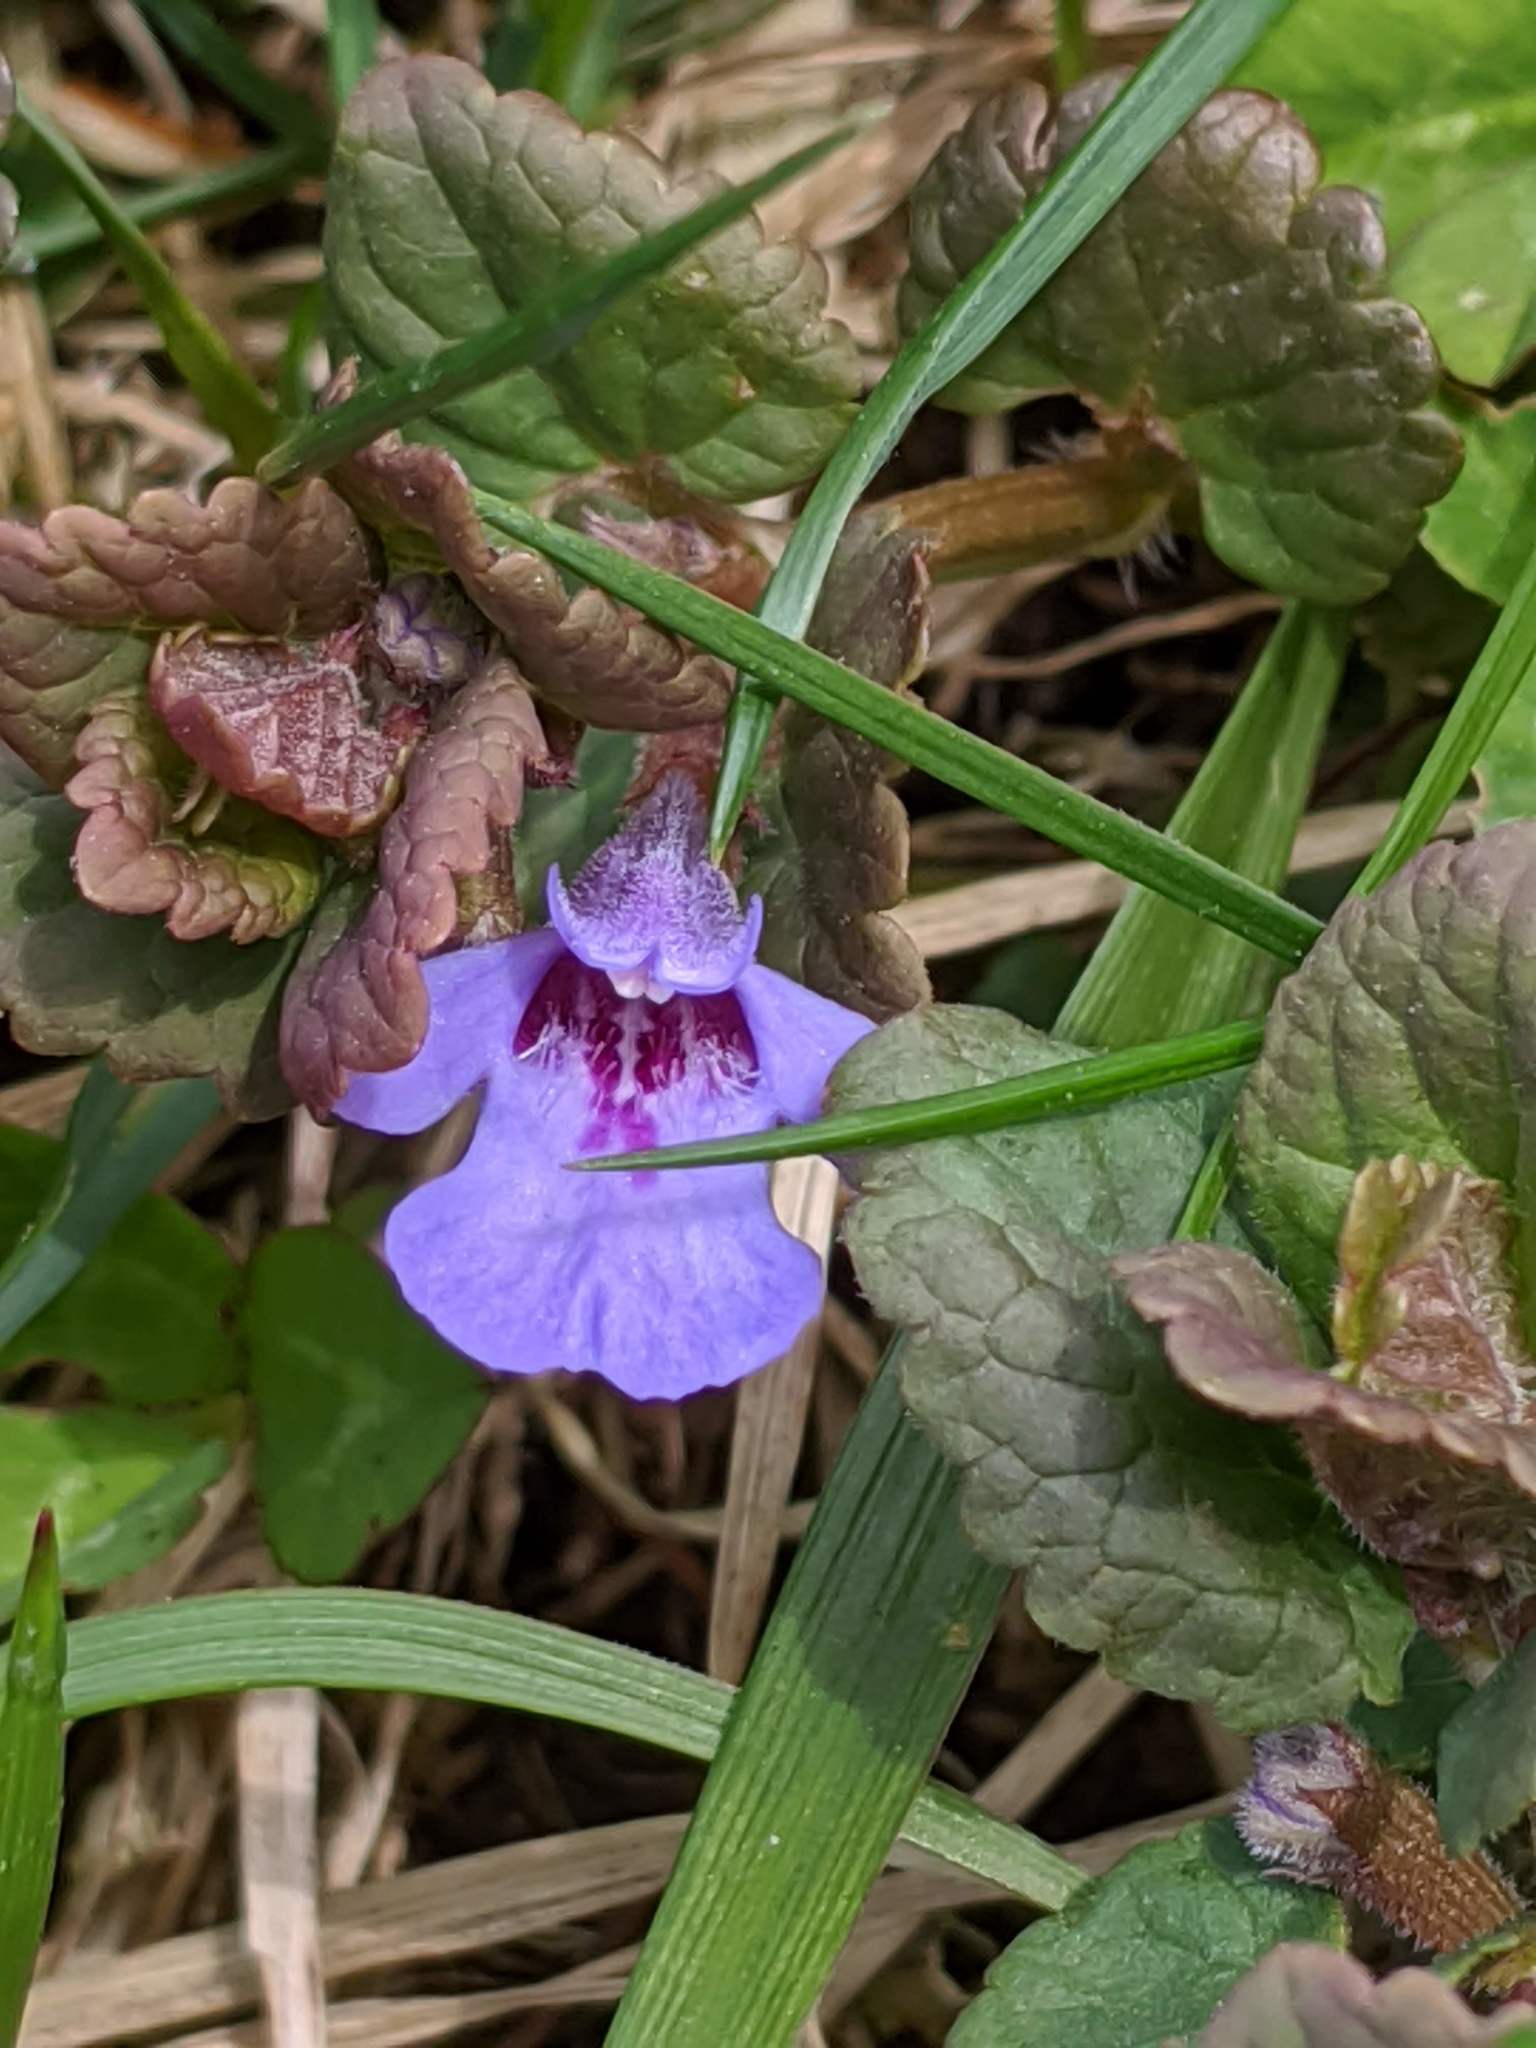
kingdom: Plantae
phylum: Tracheophyta
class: Magnoliopsida
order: Lamiales
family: Lamiaceae
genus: Glechoma
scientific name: Glechoma hederacea
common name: Ground ivy
